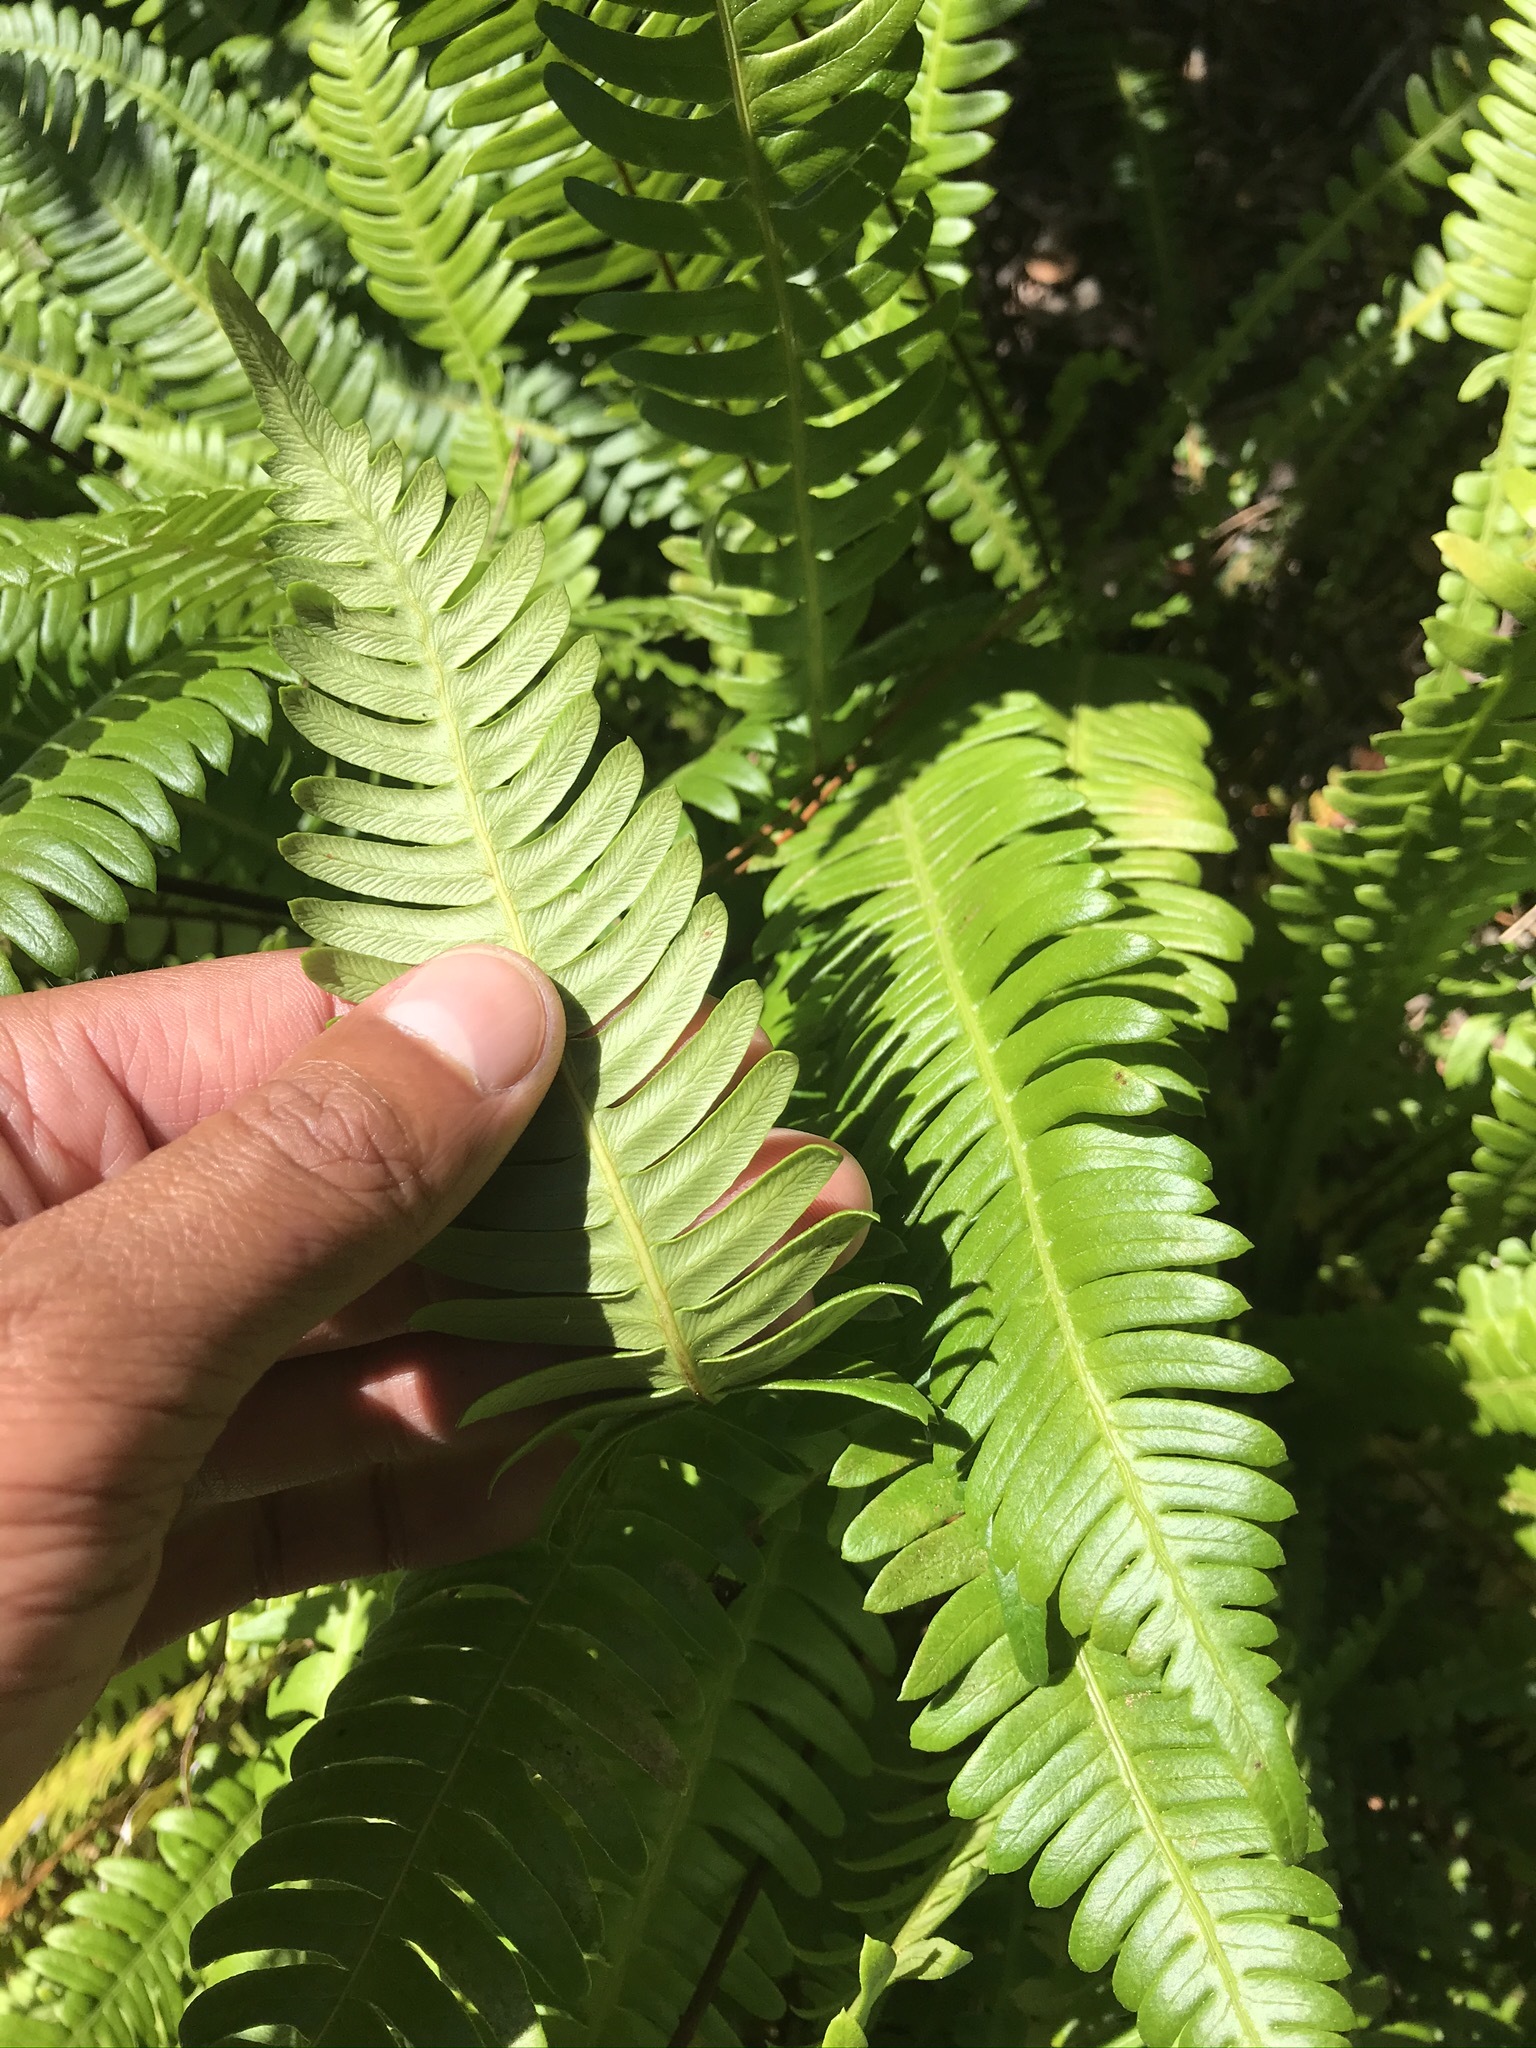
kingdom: Plantae
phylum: Tracheophyta
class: Polypodiopsida
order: Polypodiales
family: Blechnaceae
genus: Struthiopteris
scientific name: Struthiopteris spicant
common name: Deer fern
